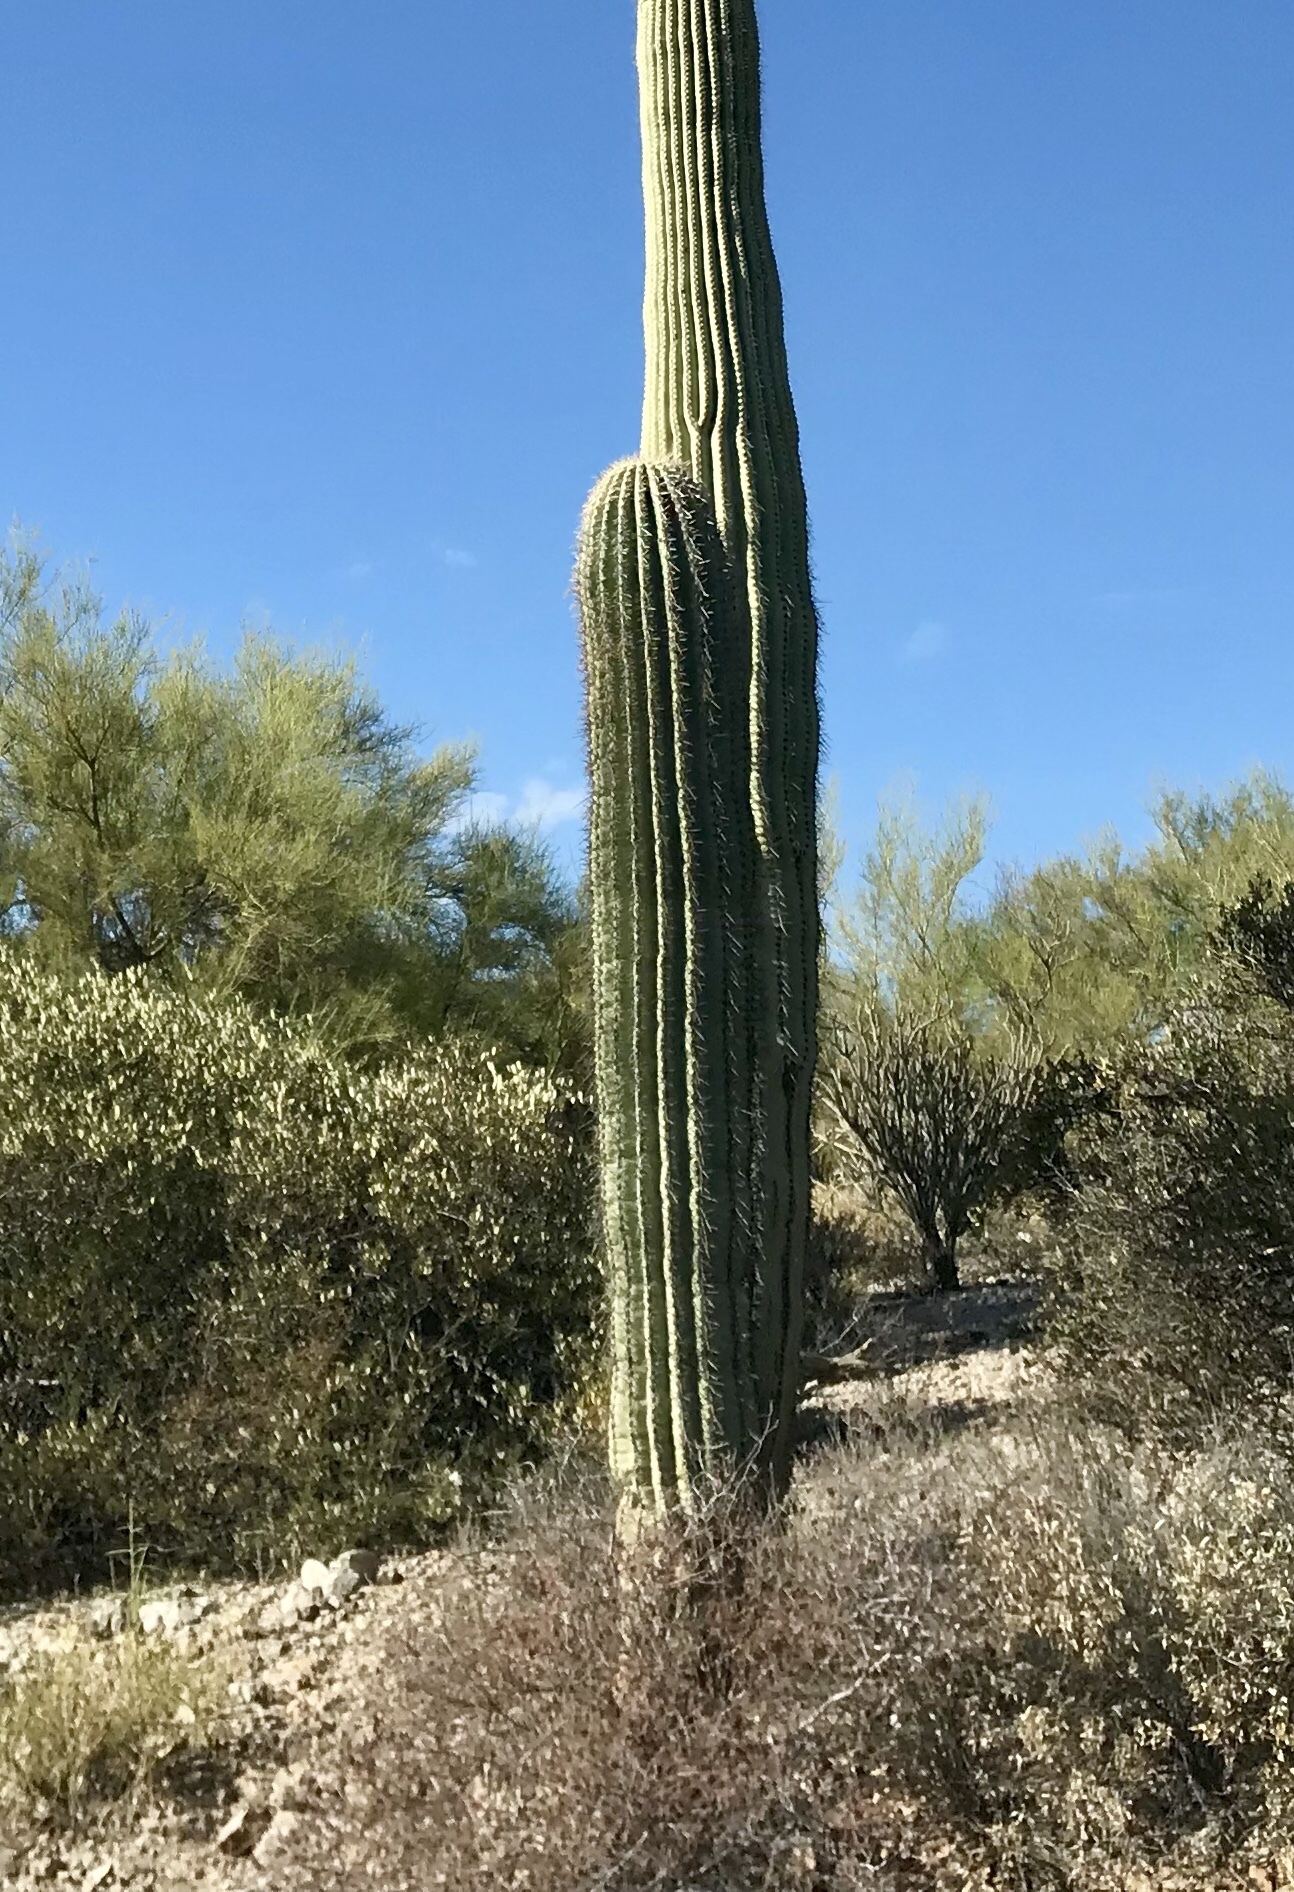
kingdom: Plantae
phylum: Tracheophyta
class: Magnoliopsida
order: Caryophyllales
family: Cactaceae
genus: Carnegiea
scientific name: Carnegiea gigantea
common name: Saguaro
